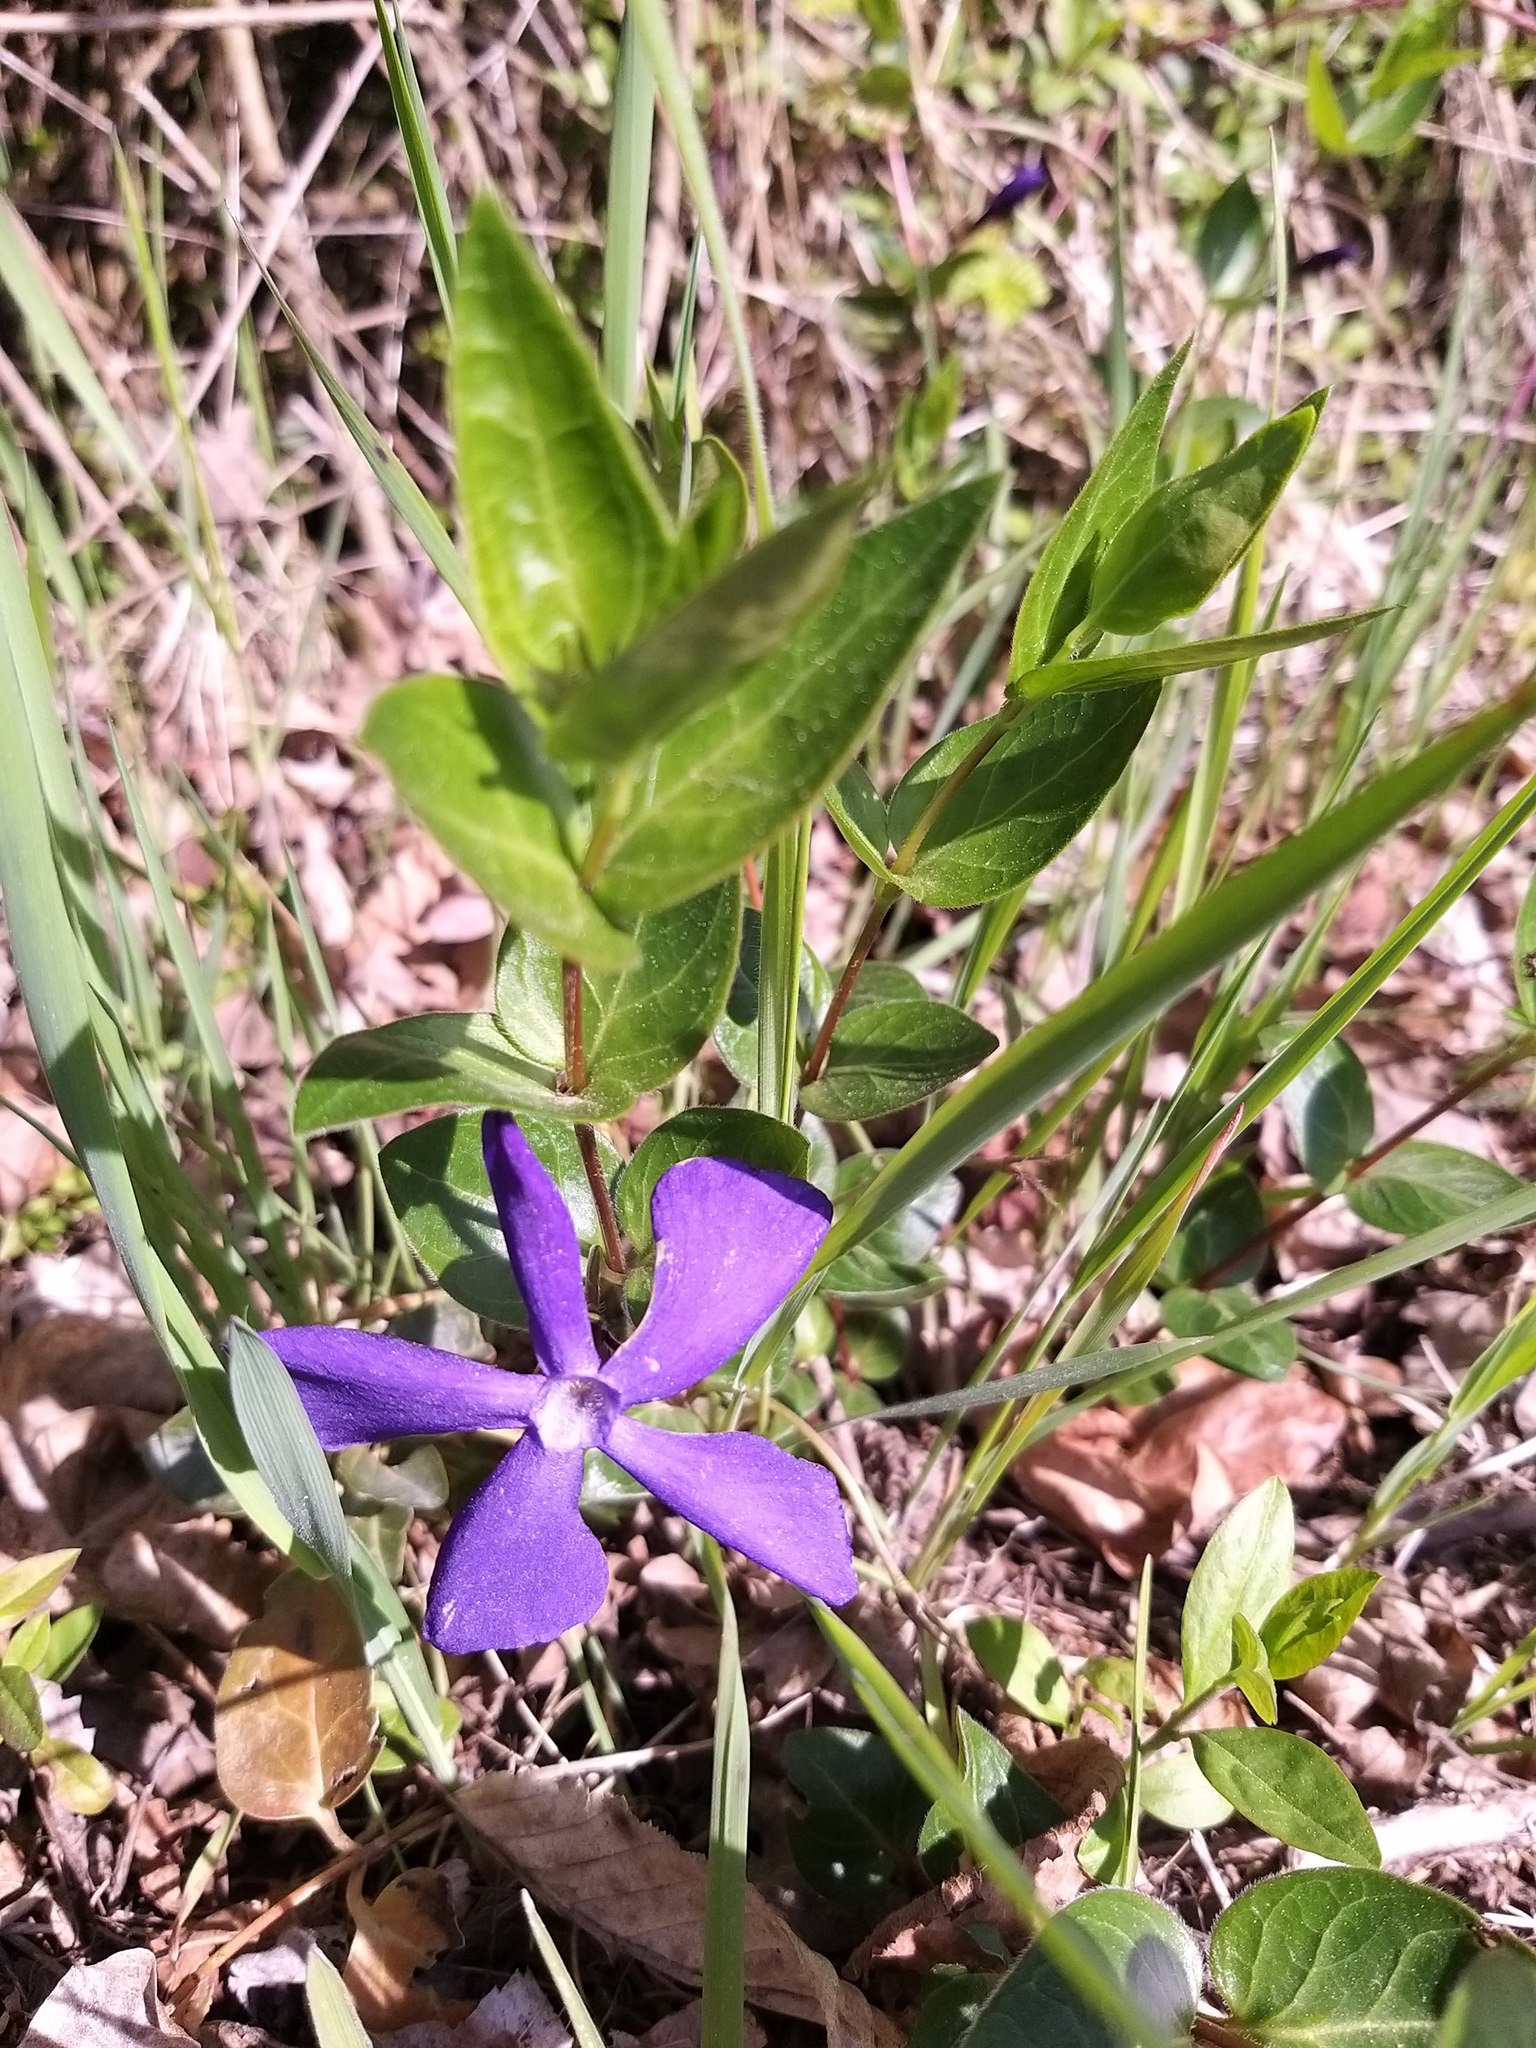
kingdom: Plantae
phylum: Tracheophyta
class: Magnoliopsida
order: Gentianales
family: Apocynaceae
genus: Vinca
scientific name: Vinca major
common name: Greater periwinkle
